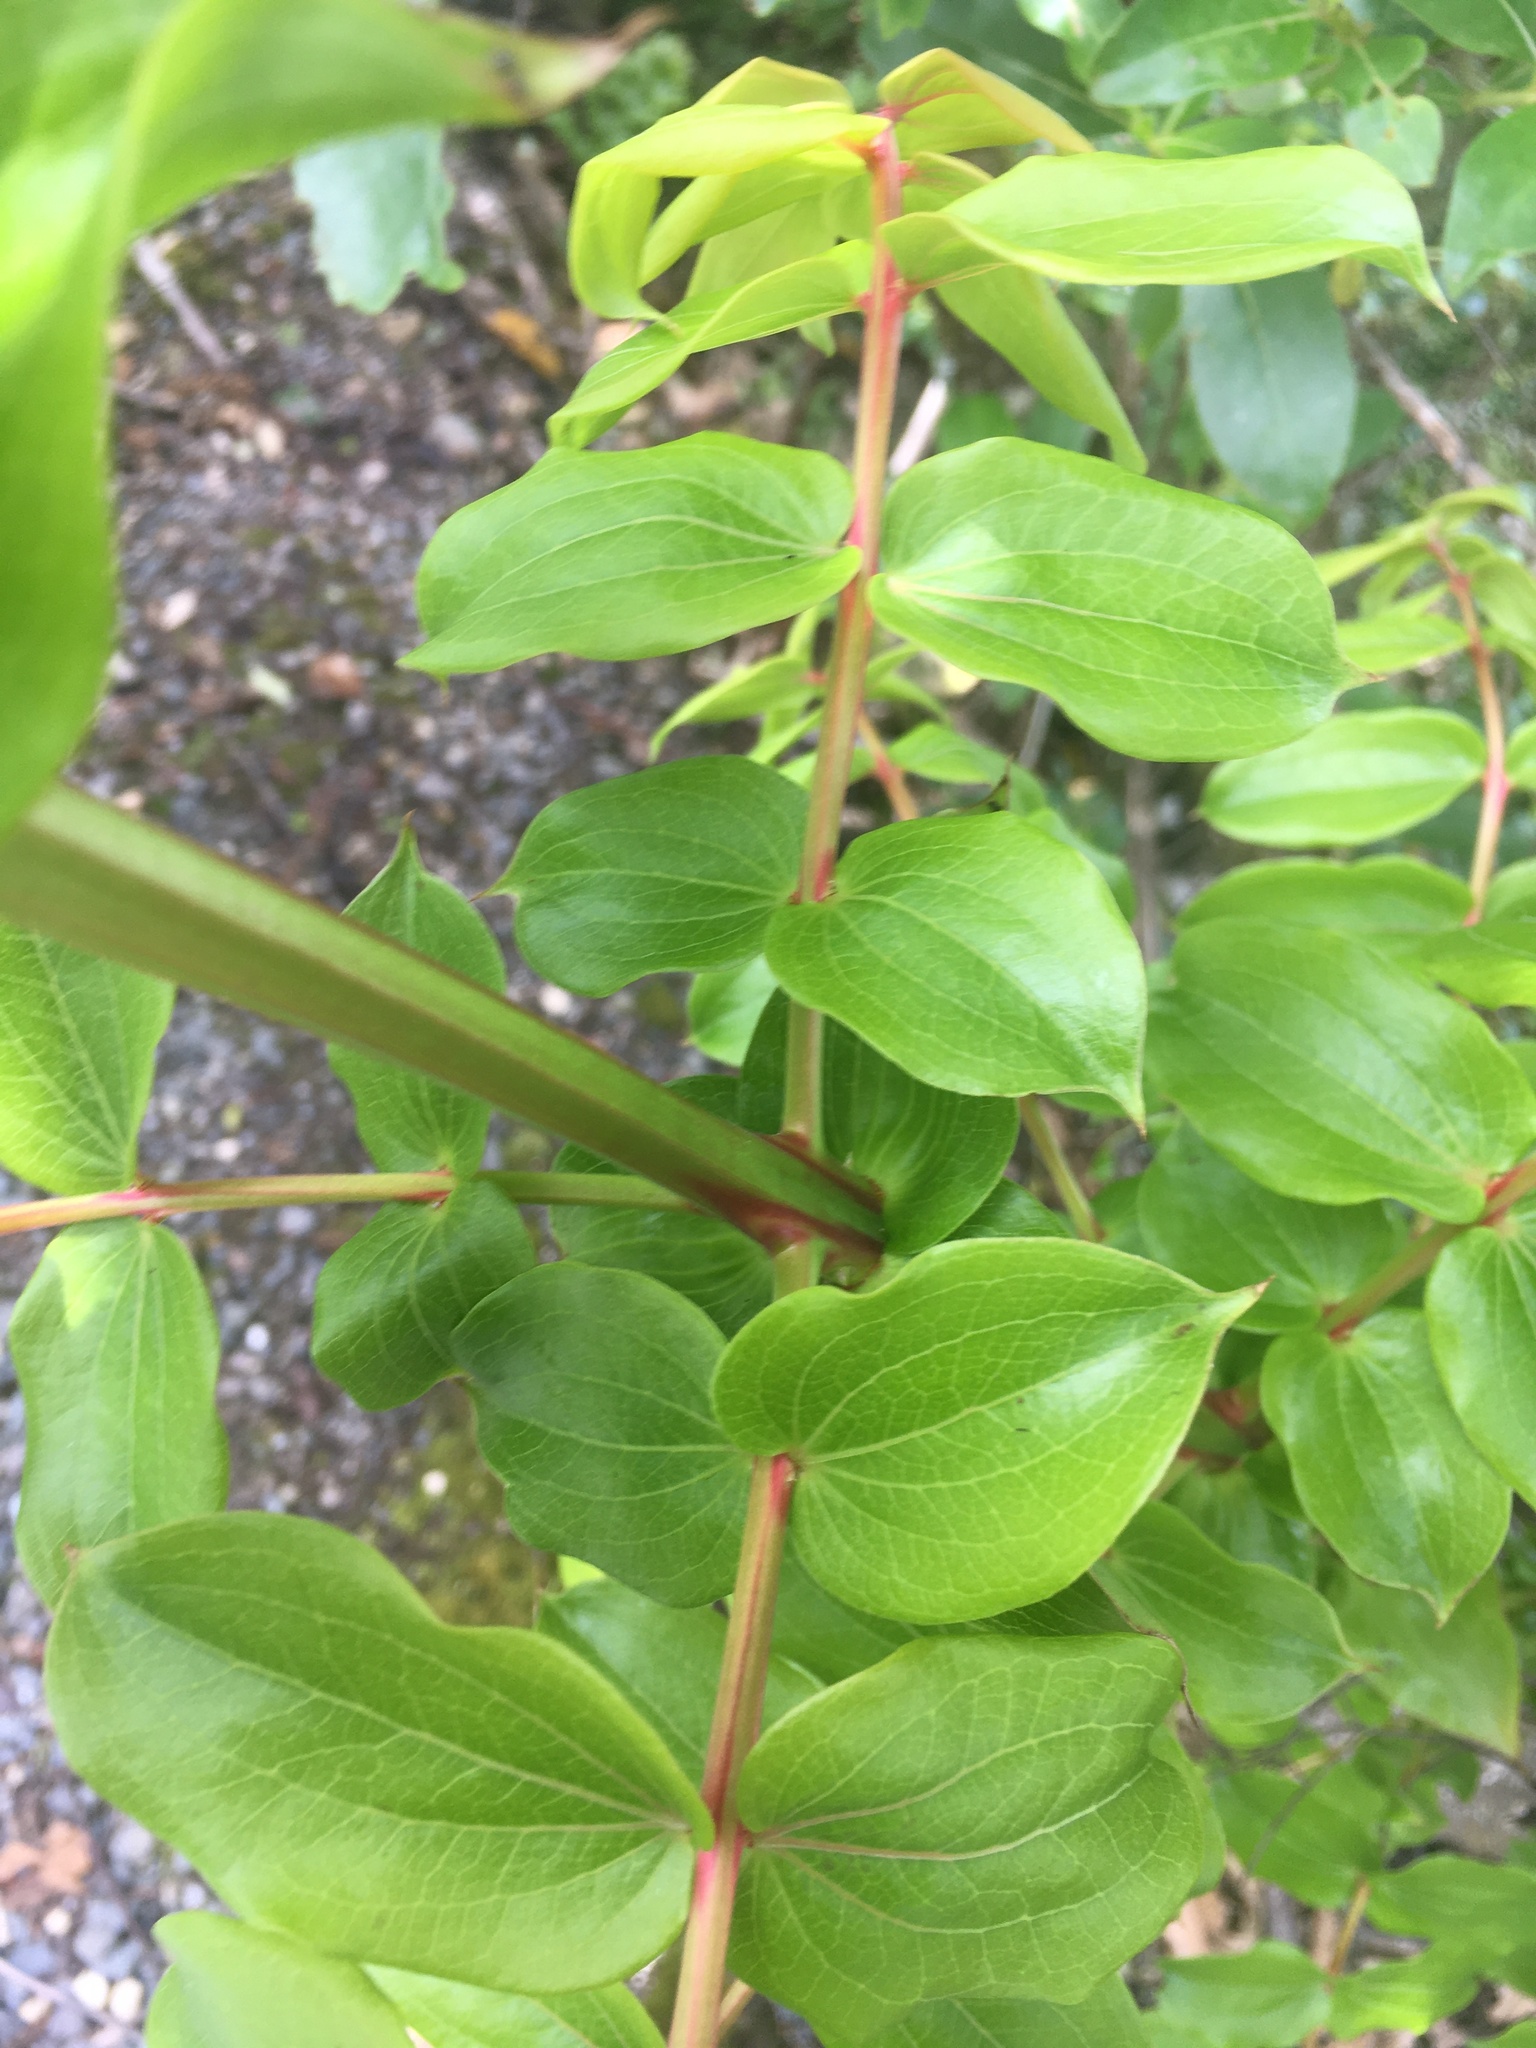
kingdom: Plantae
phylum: Tracheophyta
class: Magnoliopsida
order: Cucurbitales
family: Coriariaceae
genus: Coriaria
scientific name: Coriaria arborea
